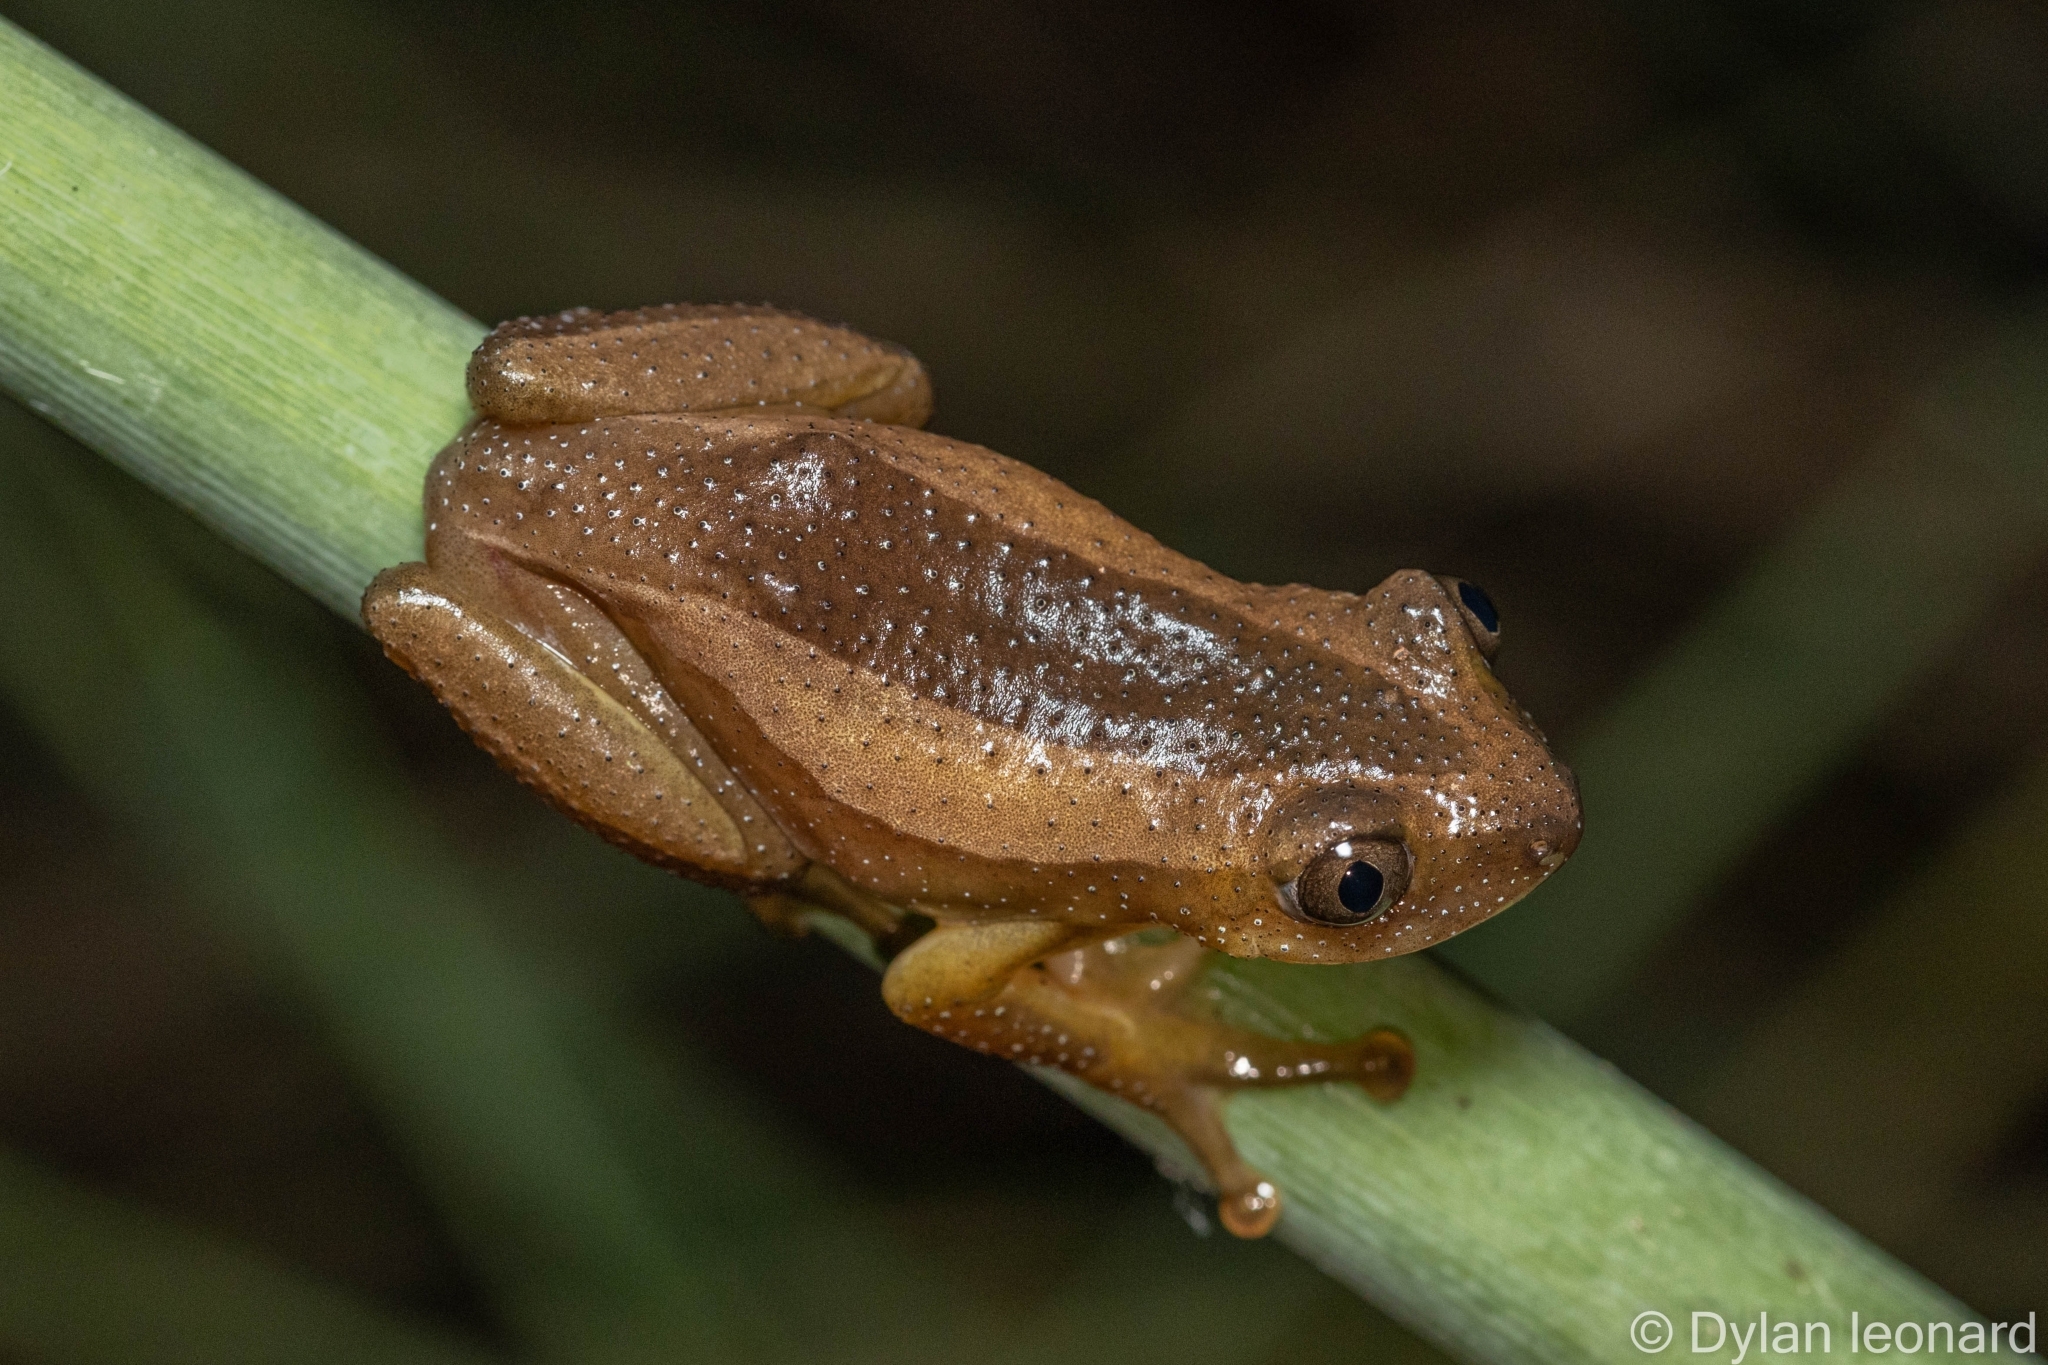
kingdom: Animalia
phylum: Chordata
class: Amphibia
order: Anura
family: Hyperoliidae
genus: Afrixalus
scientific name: Afrixalus fornasini
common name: Fornasini's spiny reed frog
